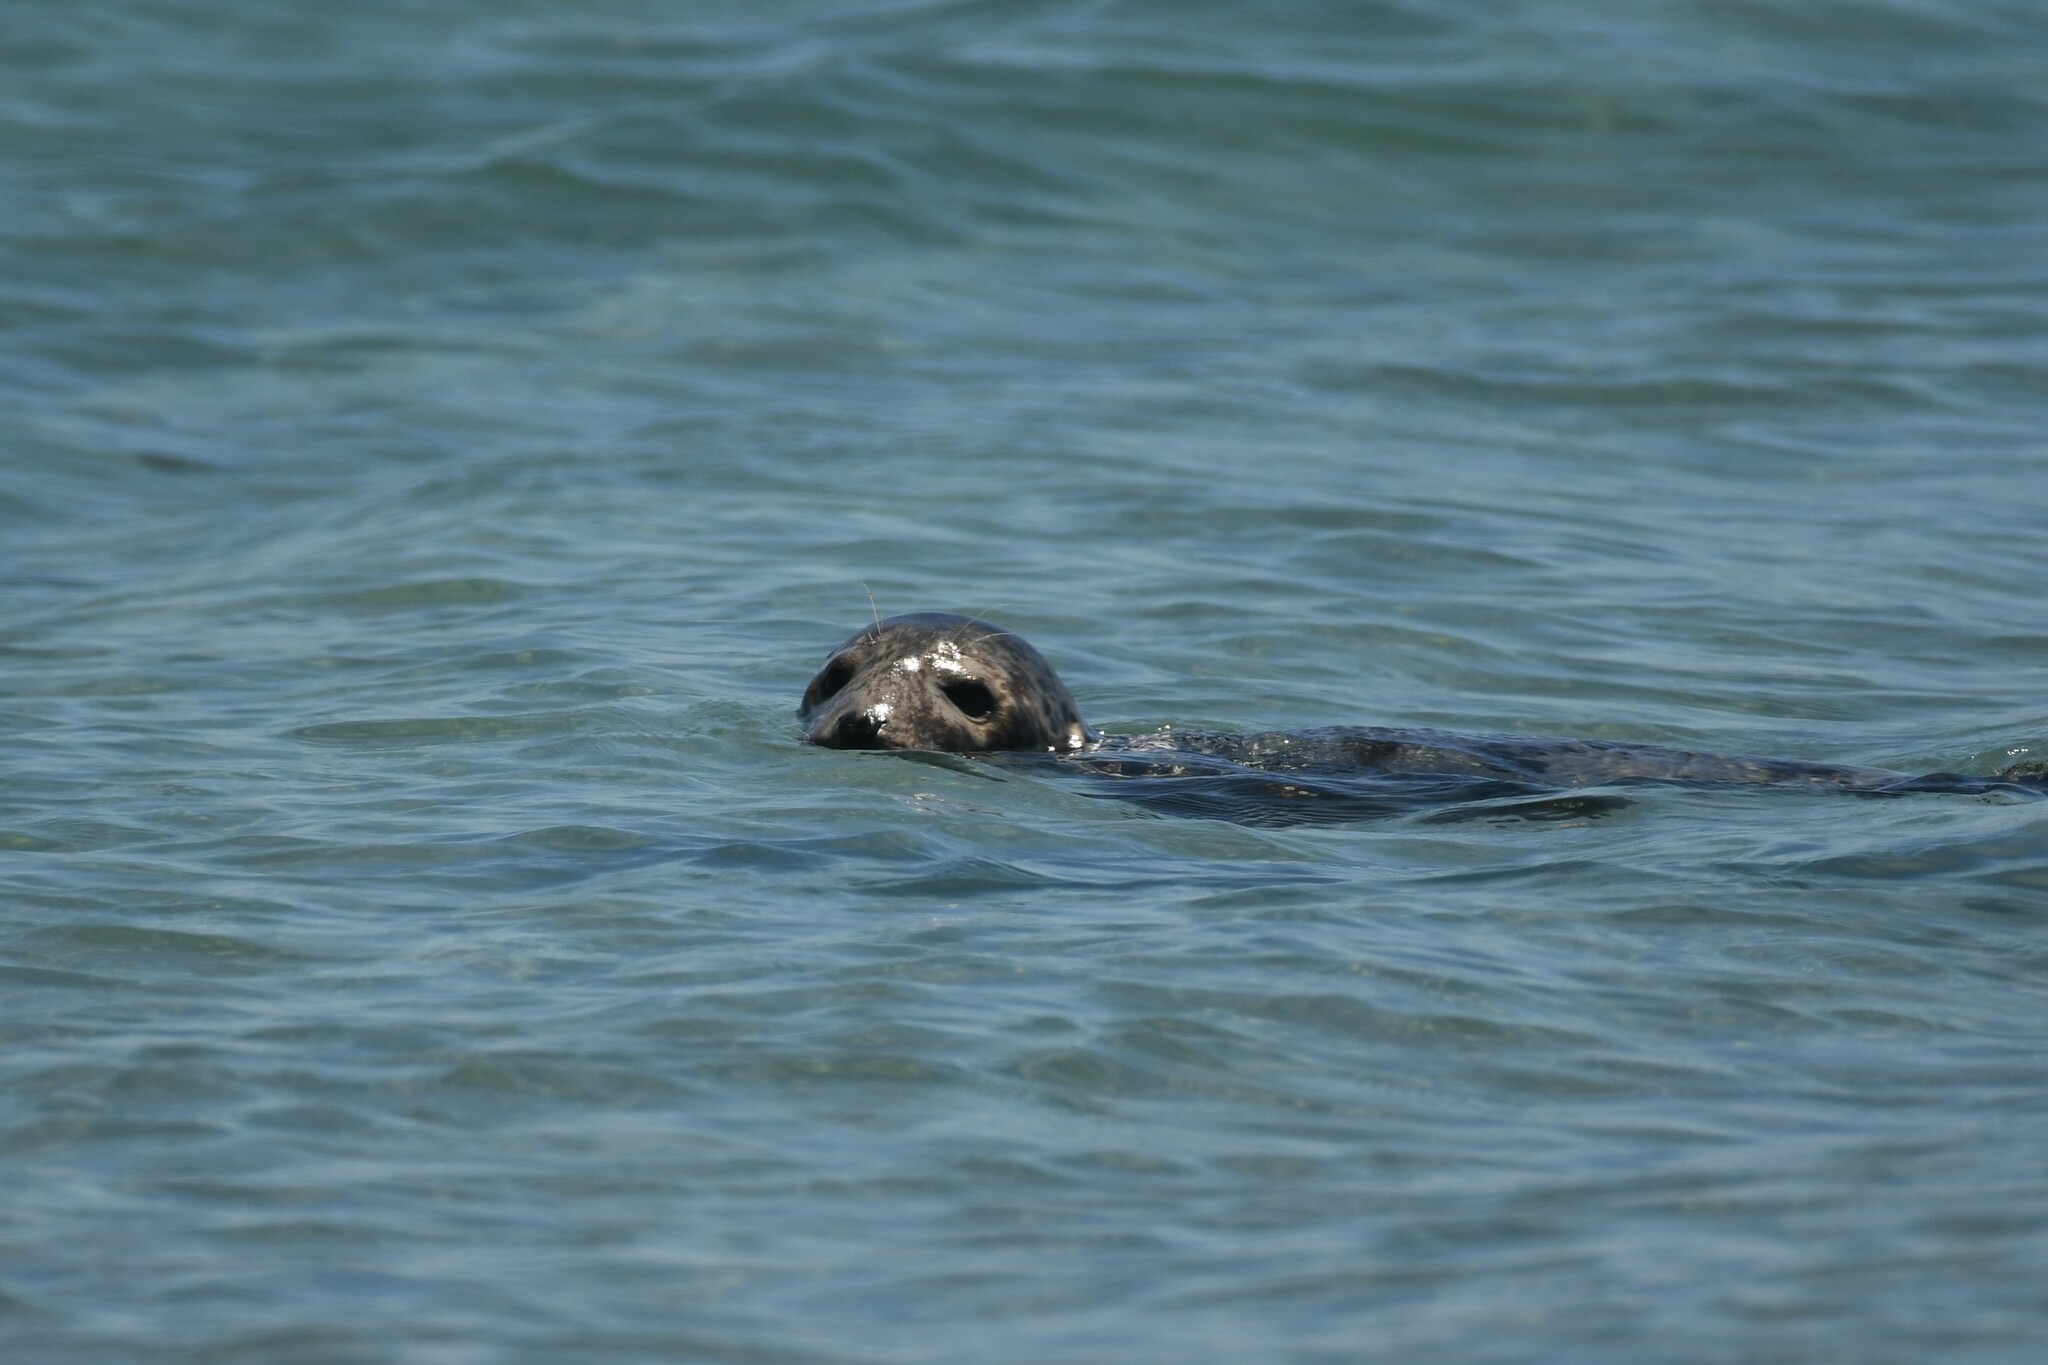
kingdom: Animalia
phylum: Chordata
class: Mammalia
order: Carnivora
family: Phocidae
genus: Halichoerus
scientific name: Halichoerus grypus
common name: Grey seal
